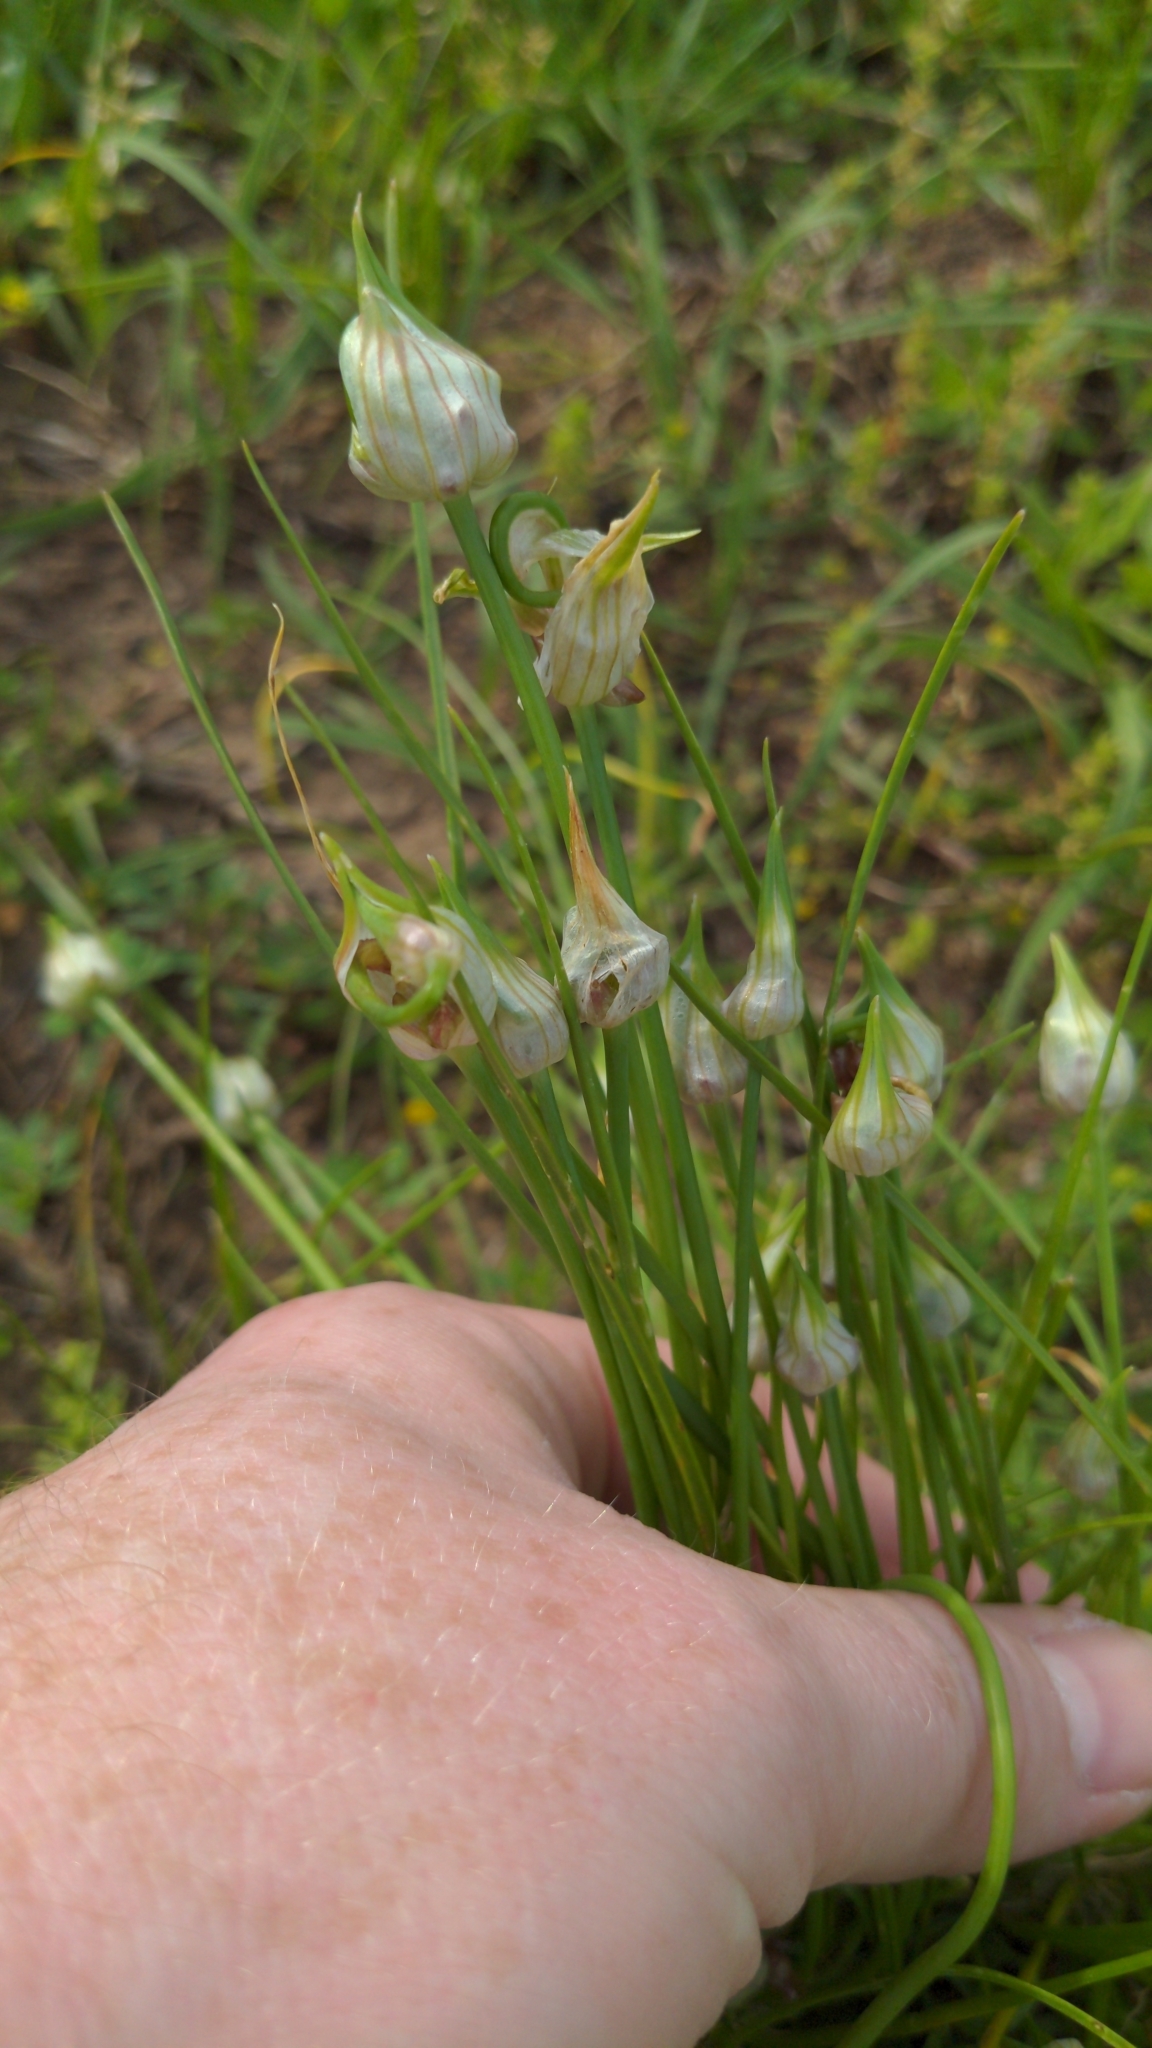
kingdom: Plantae
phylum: Tracheophyta
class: Liliopsida
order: Asparagales
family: Amaryllidaceae
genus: Allium
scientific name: Allium canadense
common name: Meadow garlic
